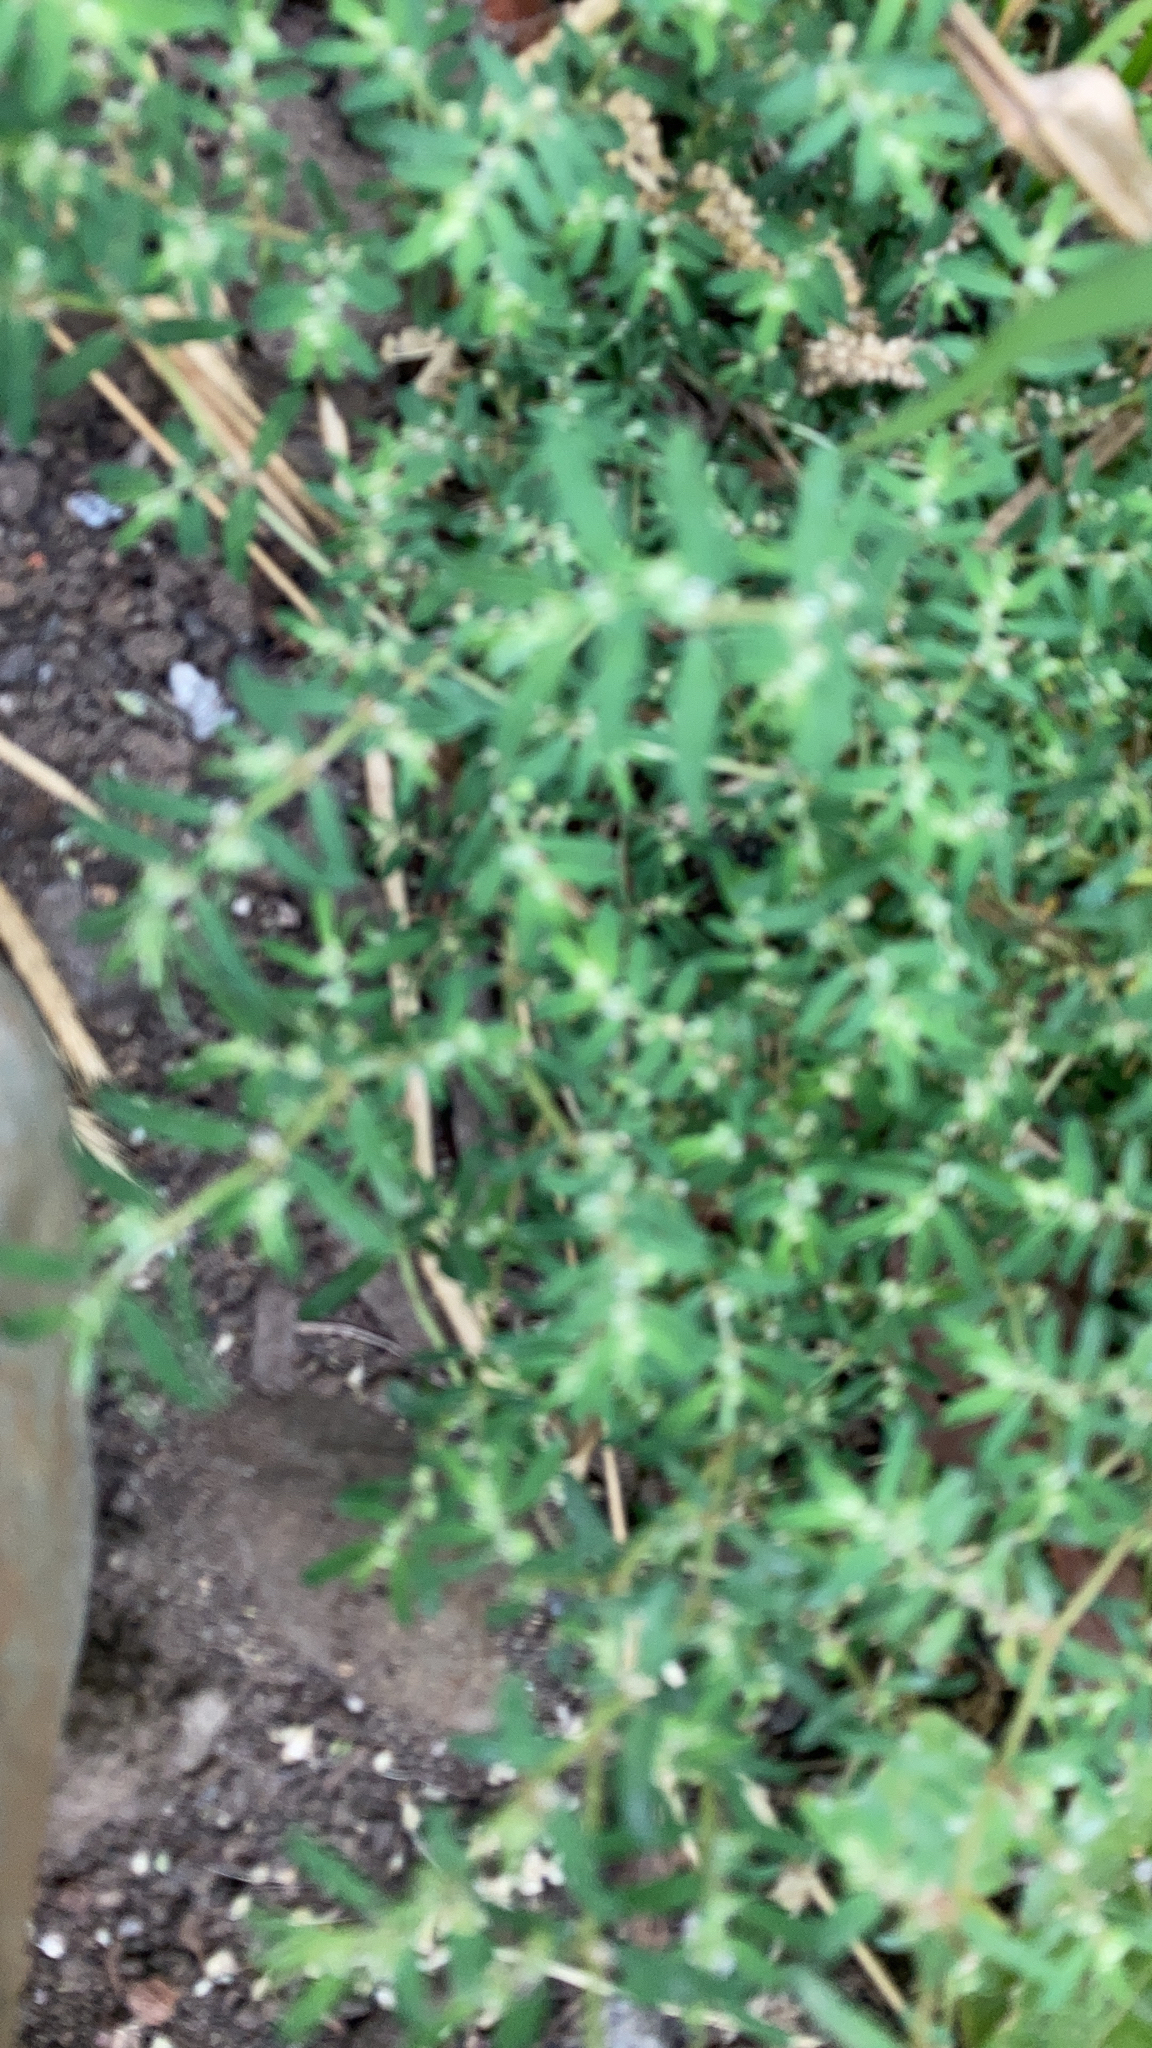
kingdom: Plantae
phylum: Tracheophyta
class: Magnoliopsida
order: Malpighiales
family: Euphorbiaceae
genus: Euphorbia
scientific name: Euphorbia maculata
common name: Spotted spurge
